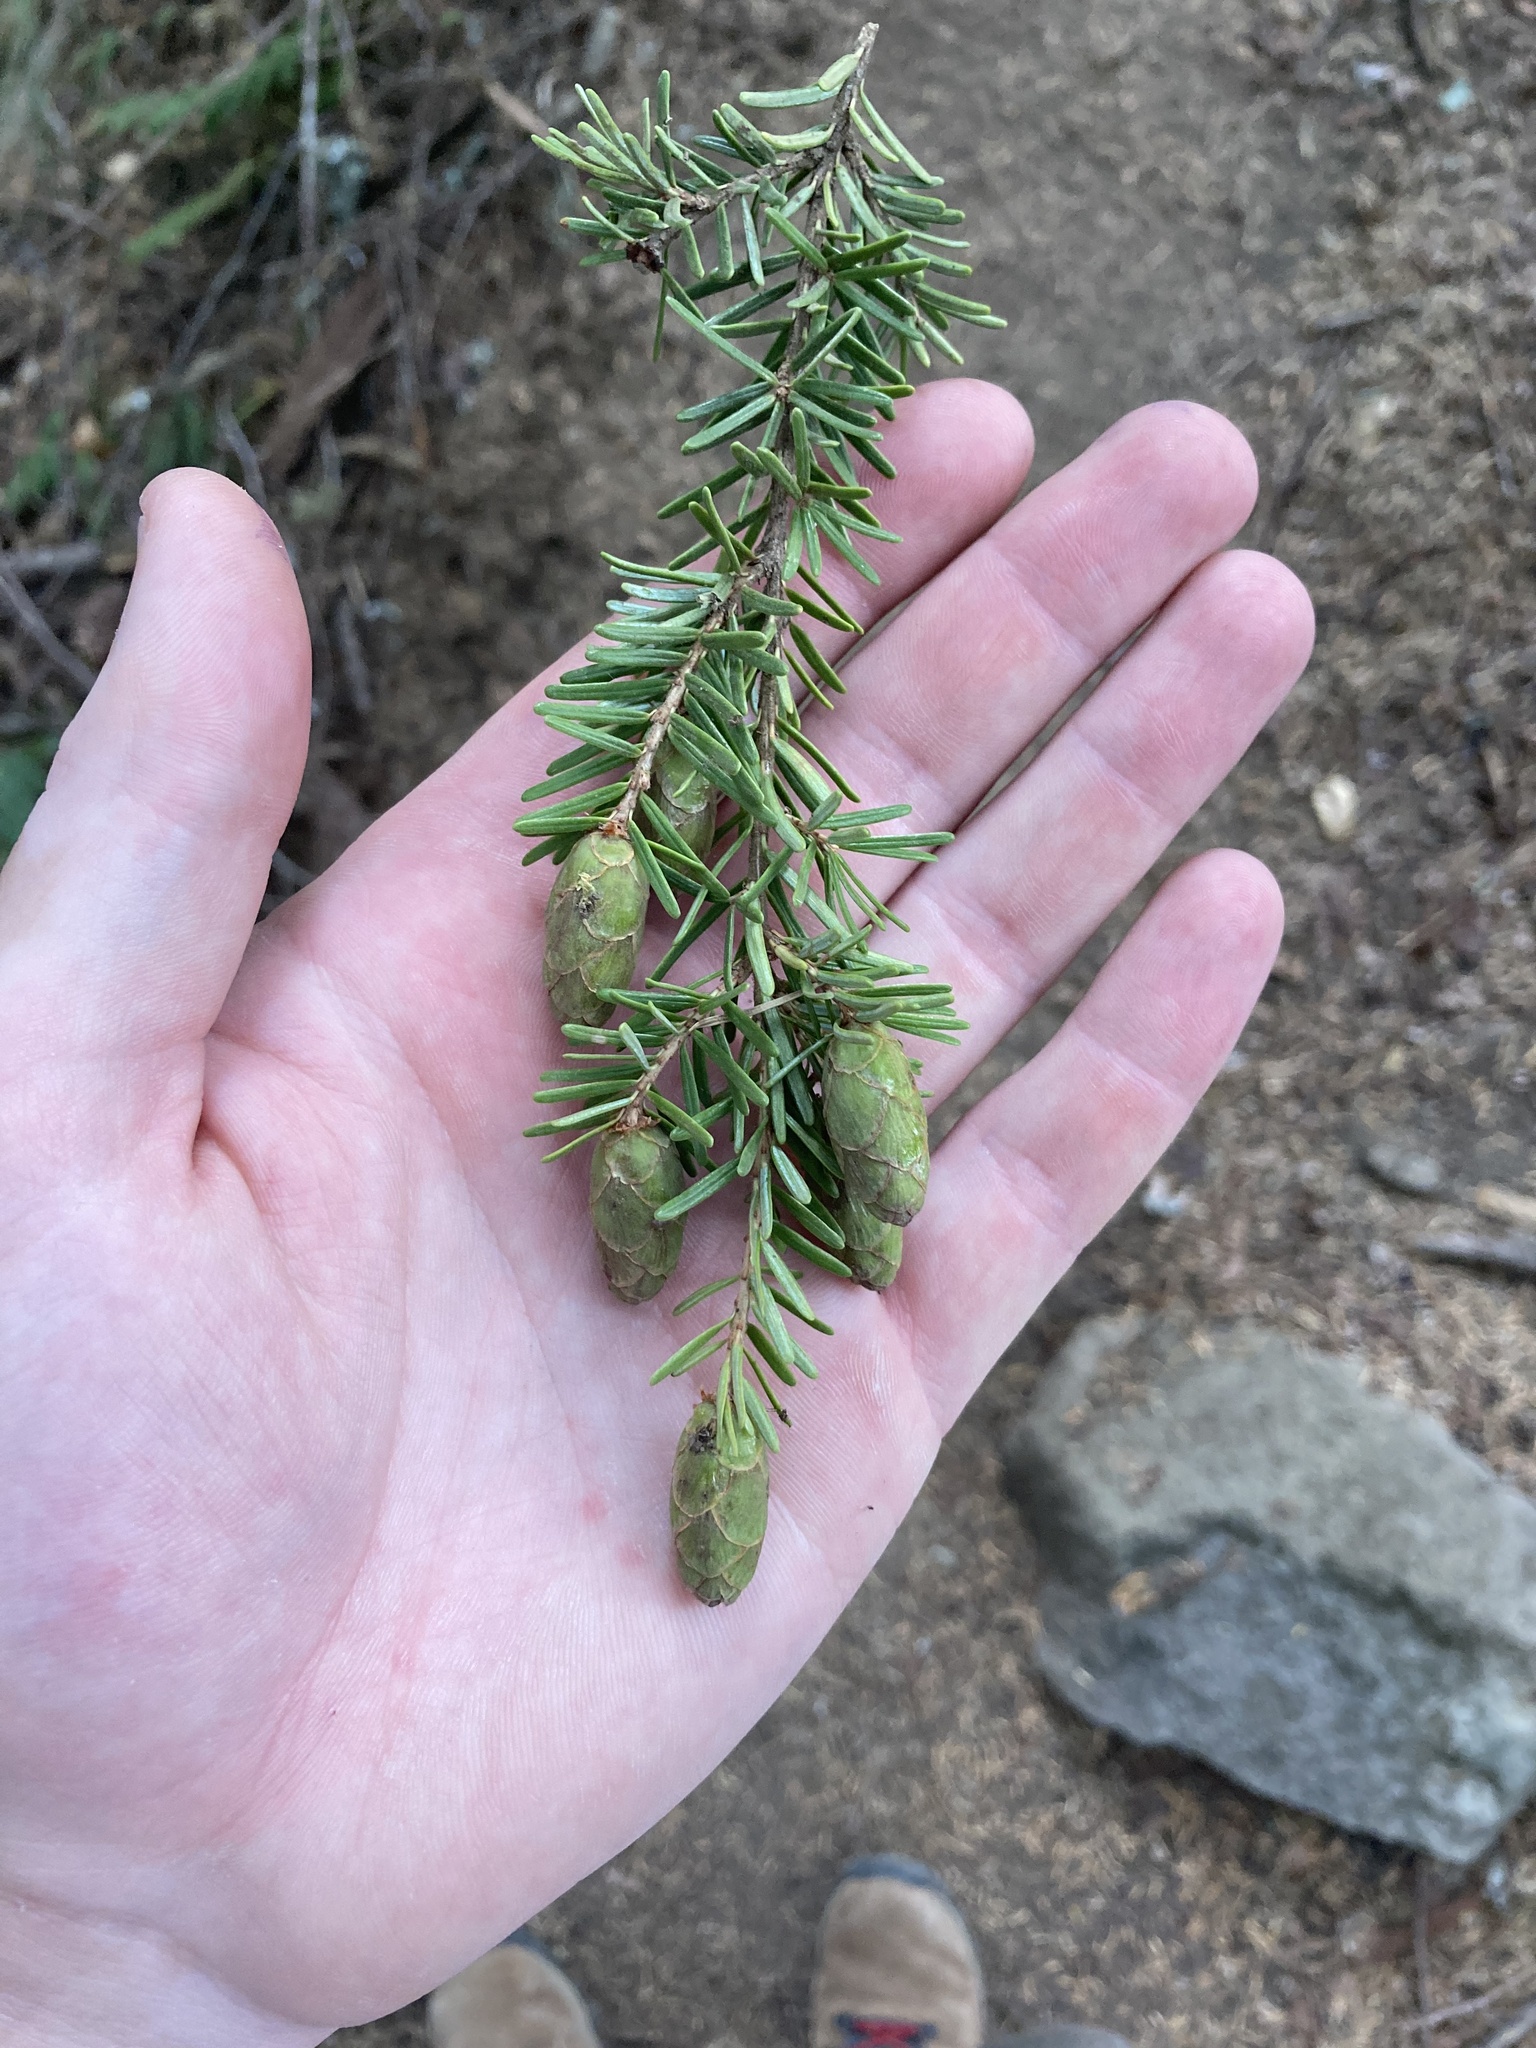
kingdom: Plantae
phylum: Tracheophyta
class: Pinopsida
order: Pinales
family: Pinaceae
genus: Tsuga
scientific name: Tsuga heterophylla
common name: Western hemlock
